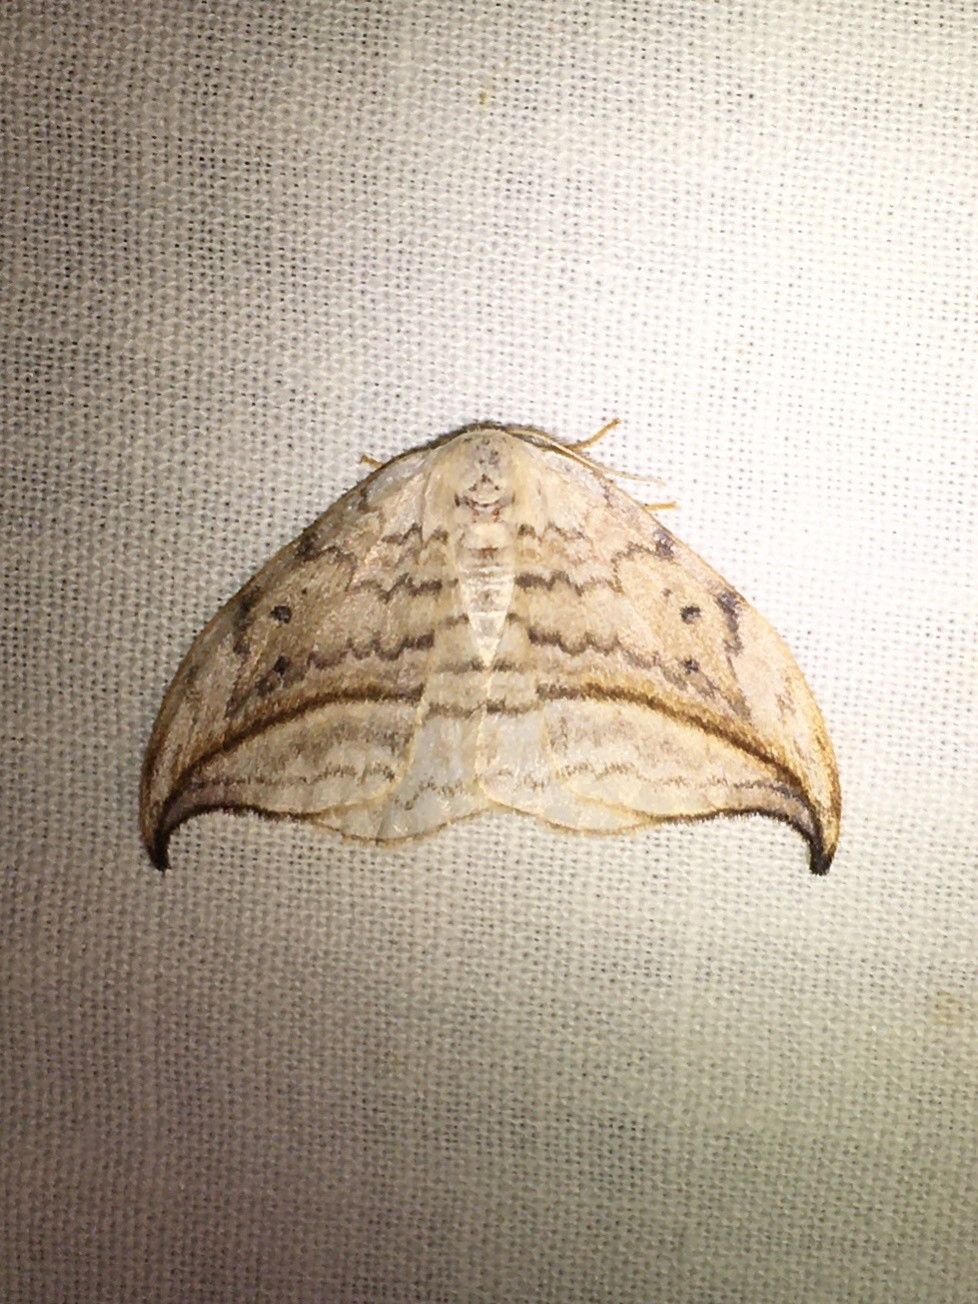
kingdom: Animalia
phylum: Arthropoda
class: Insecta
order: Lepidoptera
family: Drepanidae
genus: Drepana
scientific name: Drepana arcuata
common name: Arched hooktip moth
